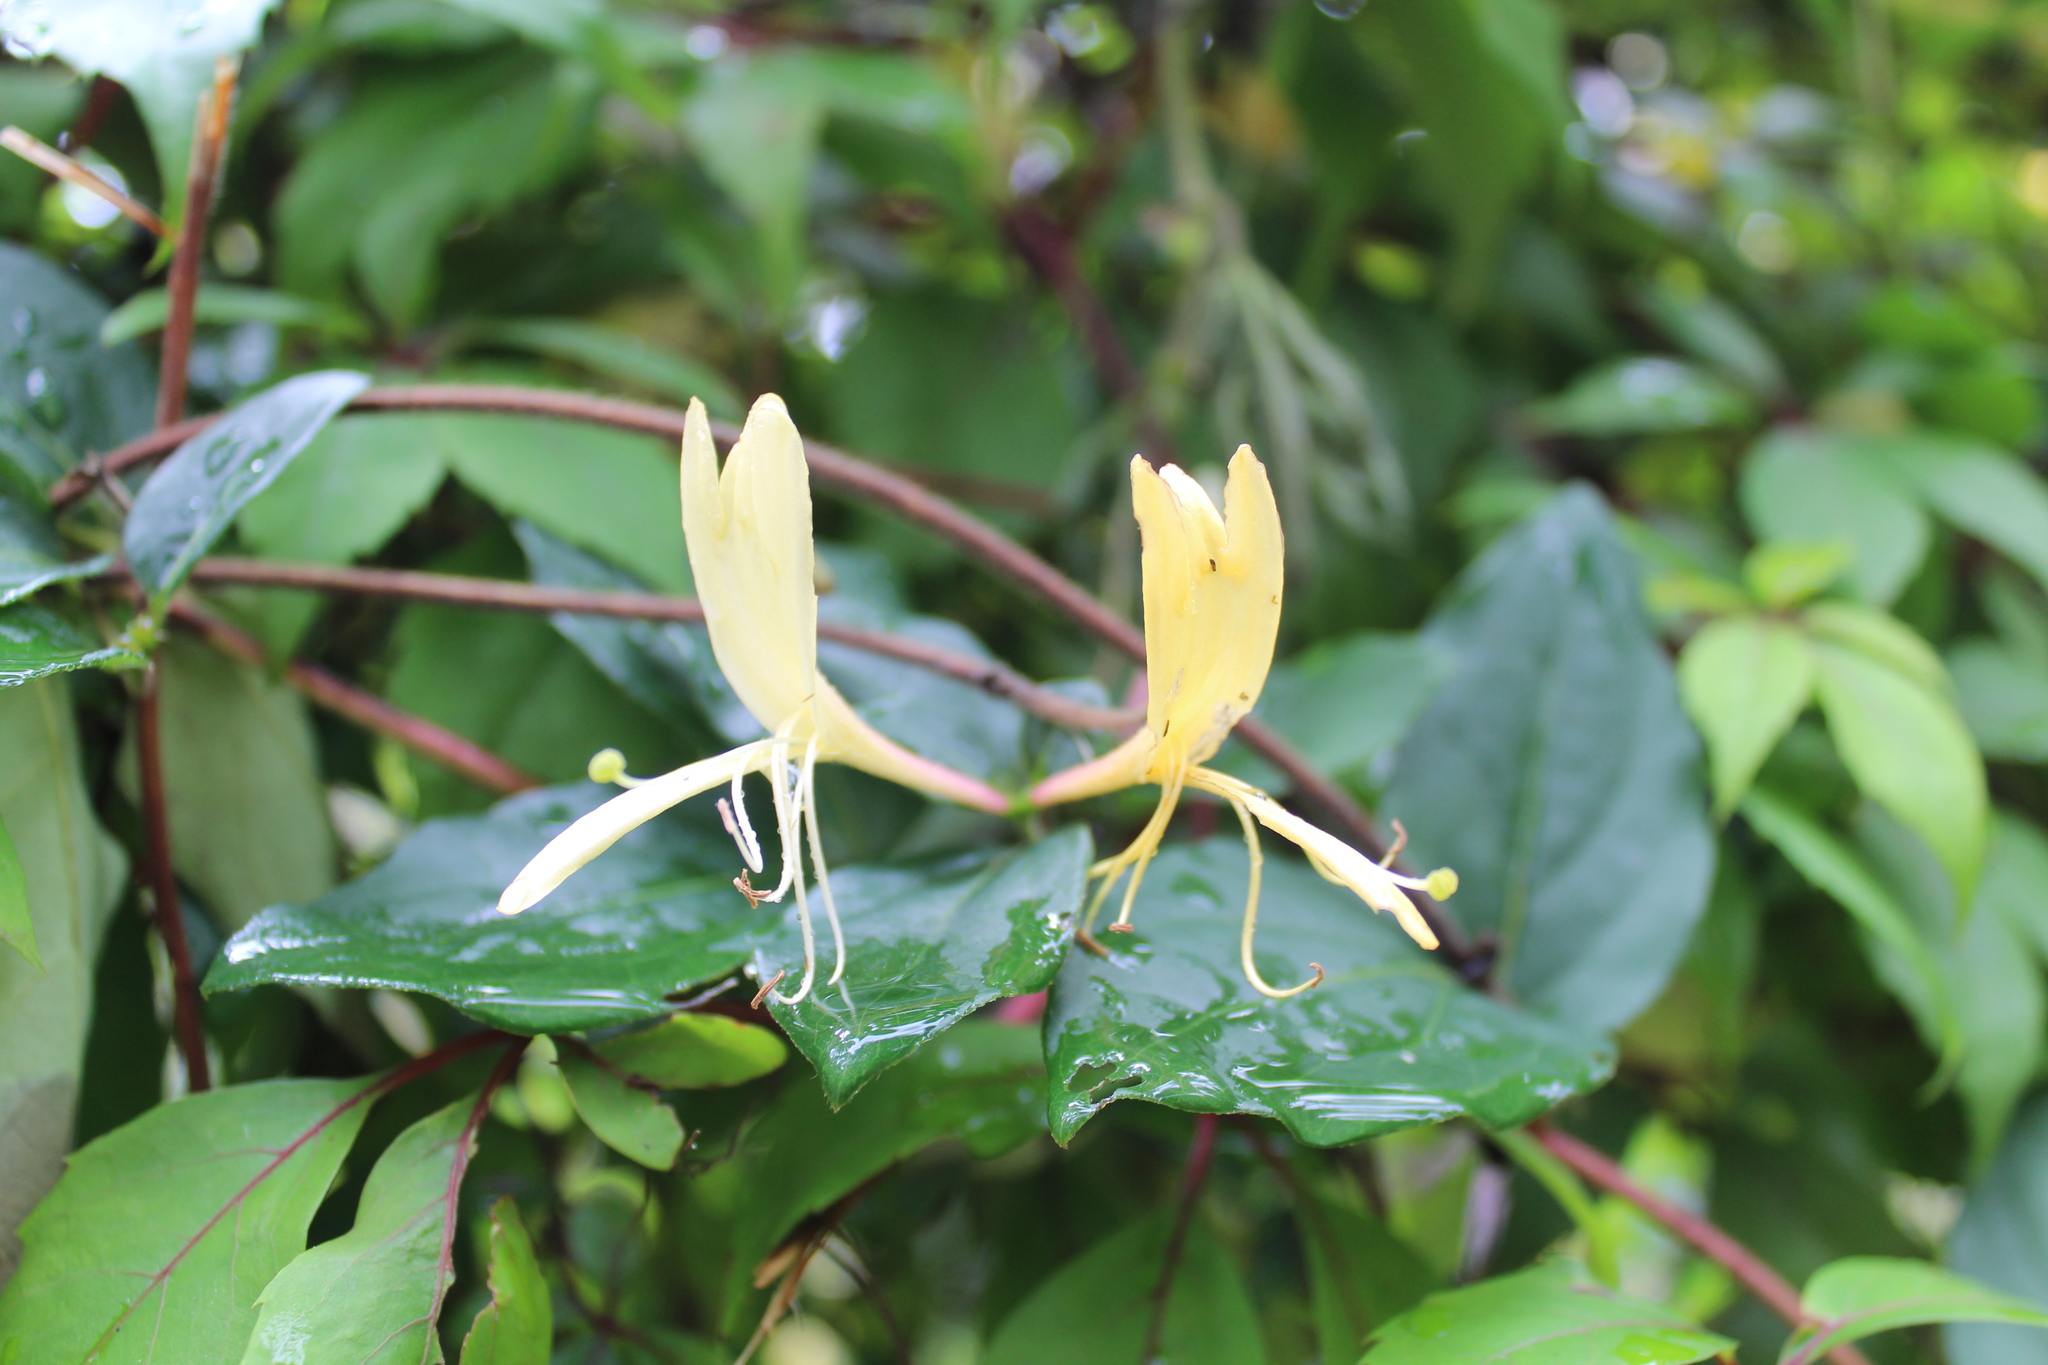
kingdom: Plantae
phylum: Tracheophyta
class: Magnoliopsida
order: Dipsacales
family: Caprifoliaceae
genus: Lonicera
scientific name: Lonicera japonica
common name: Japanese honeysuckle
